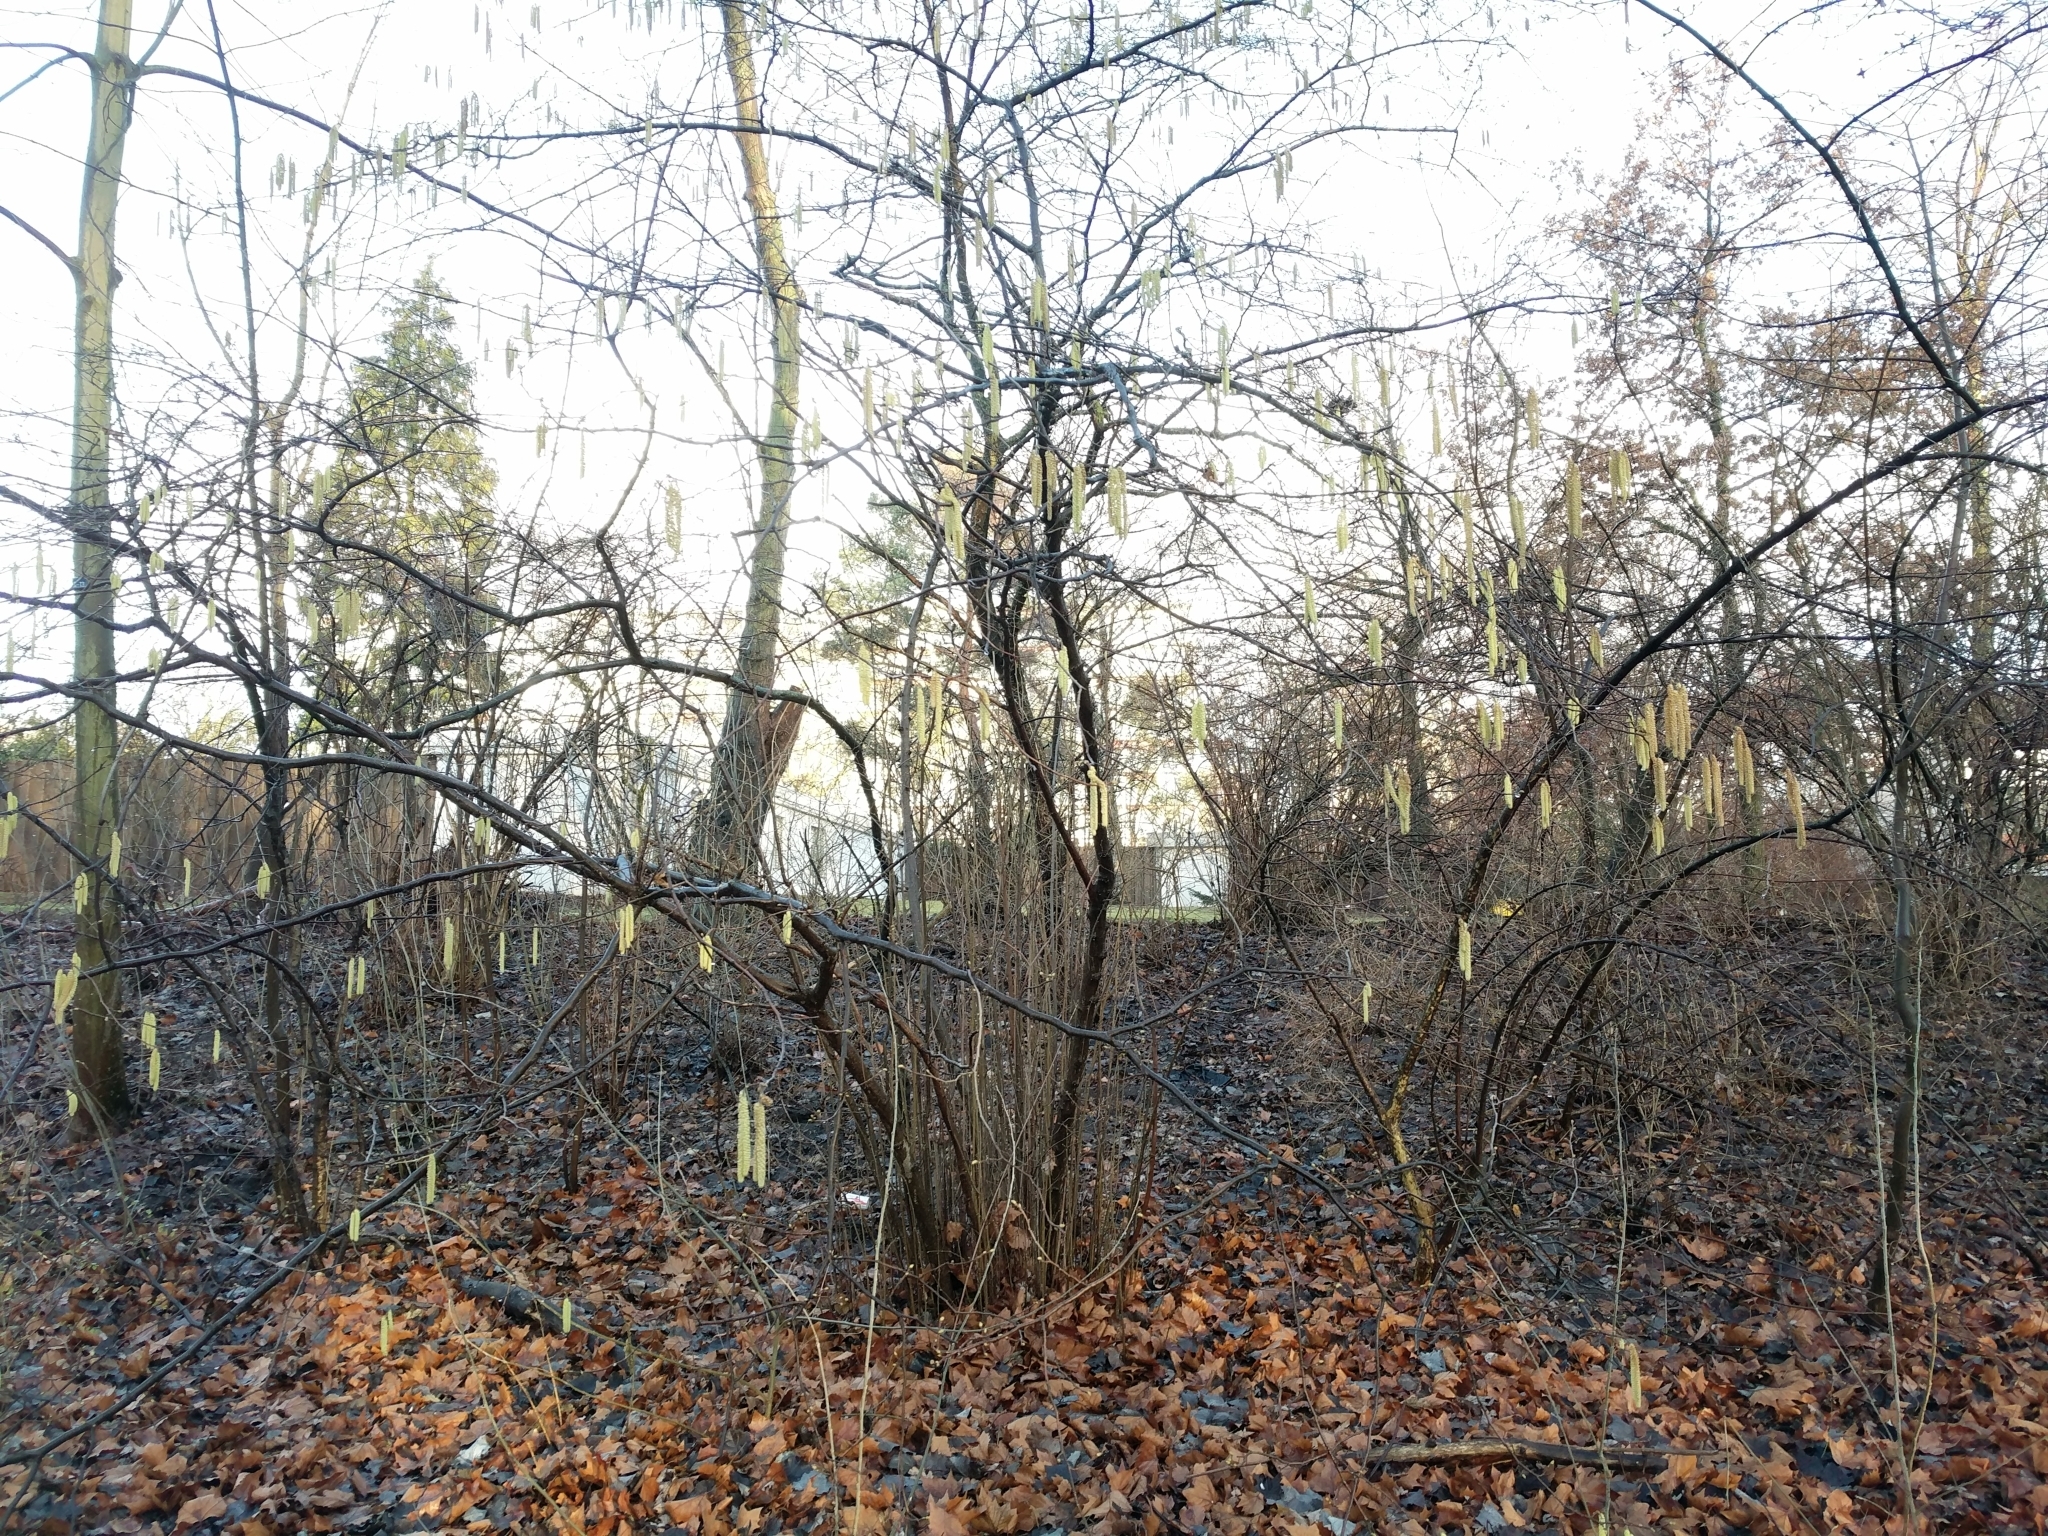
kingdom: Plantae
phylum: Tracheophyta
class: Magnoliopsida
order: Fagales
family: Betulaceae
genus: Corylus
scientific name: Corylus avellana
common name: European hazel
